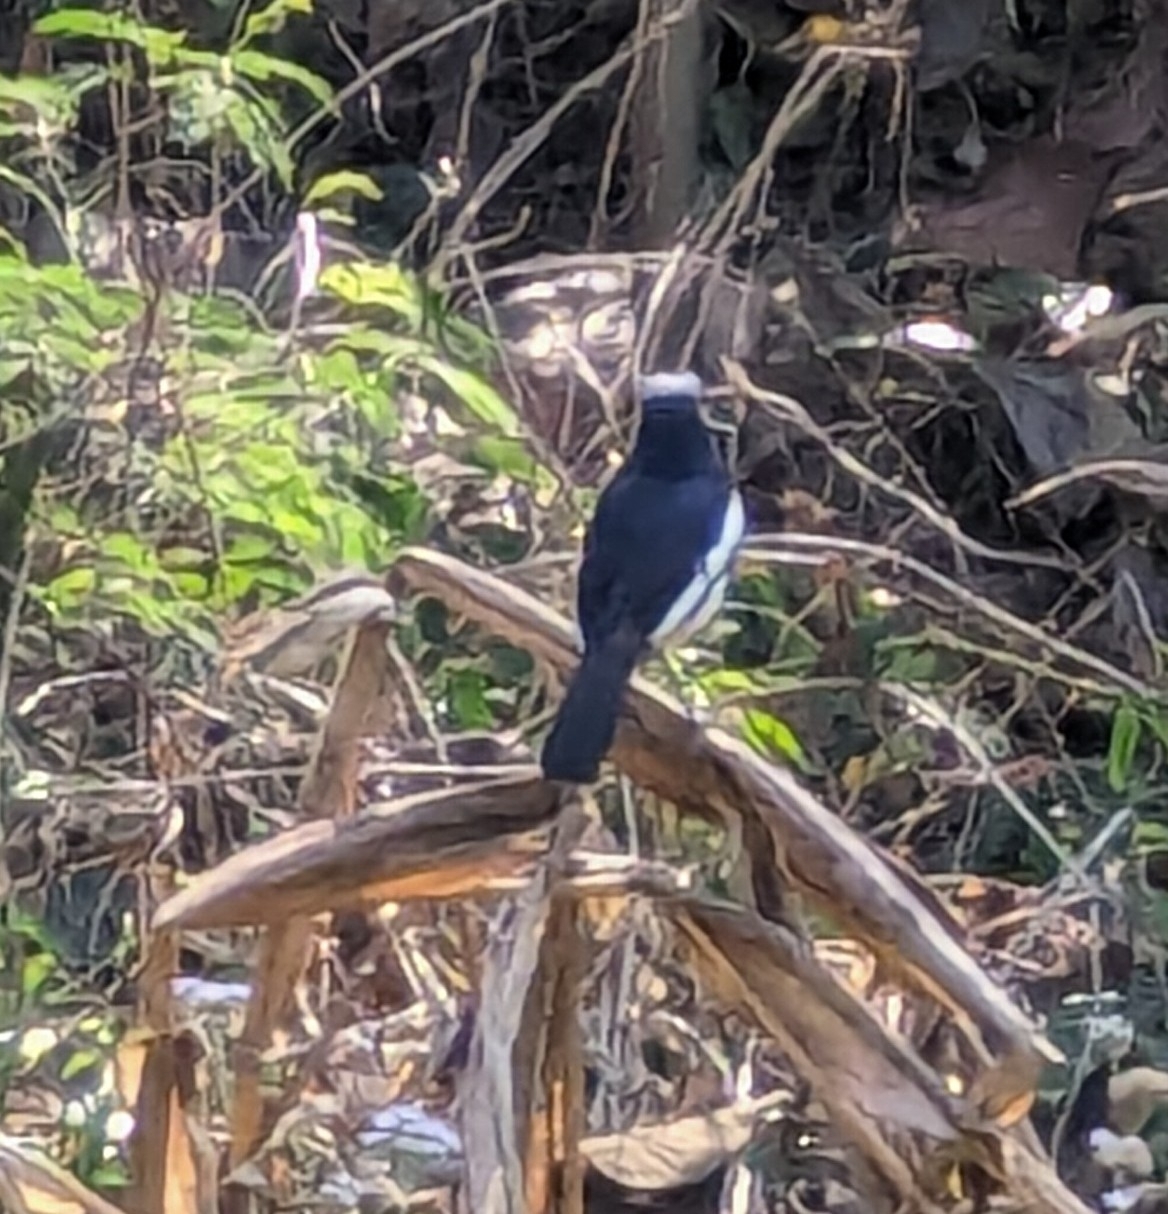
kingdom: Animalia
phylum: Chordata
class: Aves
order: Passeriformes
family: Muscicapidae
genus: Copsychus
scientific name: Copsychus saularis
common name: Oriental magpie-robin
